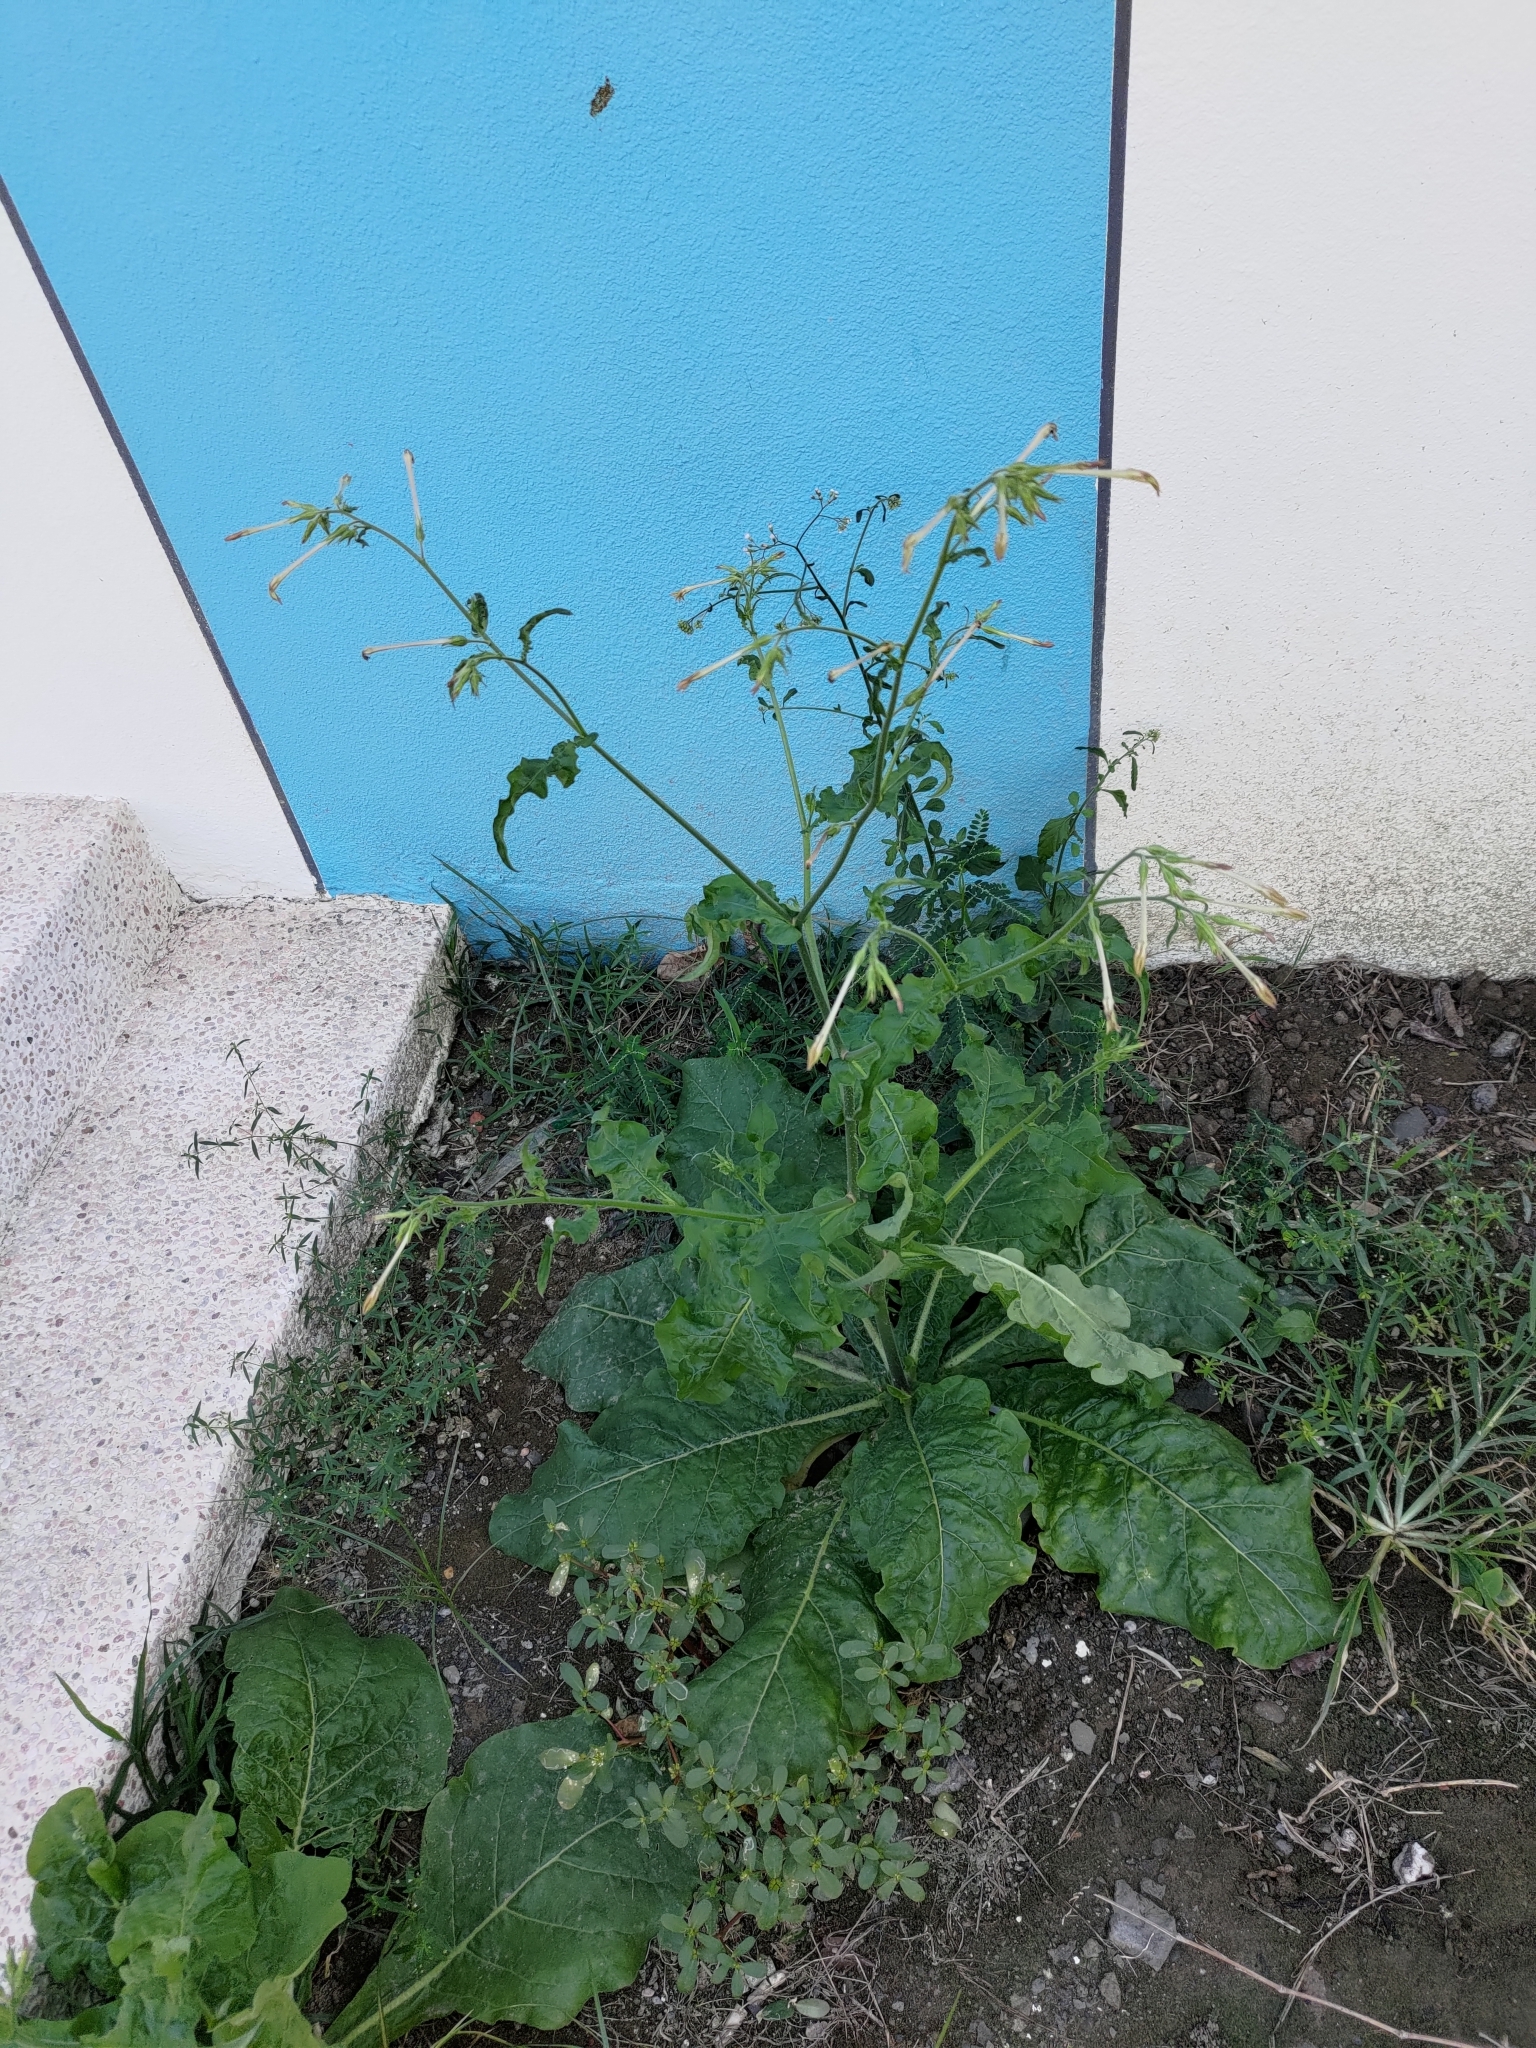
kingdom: Plantae
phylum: Tracheophyta
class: Magnoliopsida
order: Solanales
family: Solanaceae
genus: Nicotiana
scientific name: Nicotiana plumbaginifolia
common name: Tex-mex tobacco
